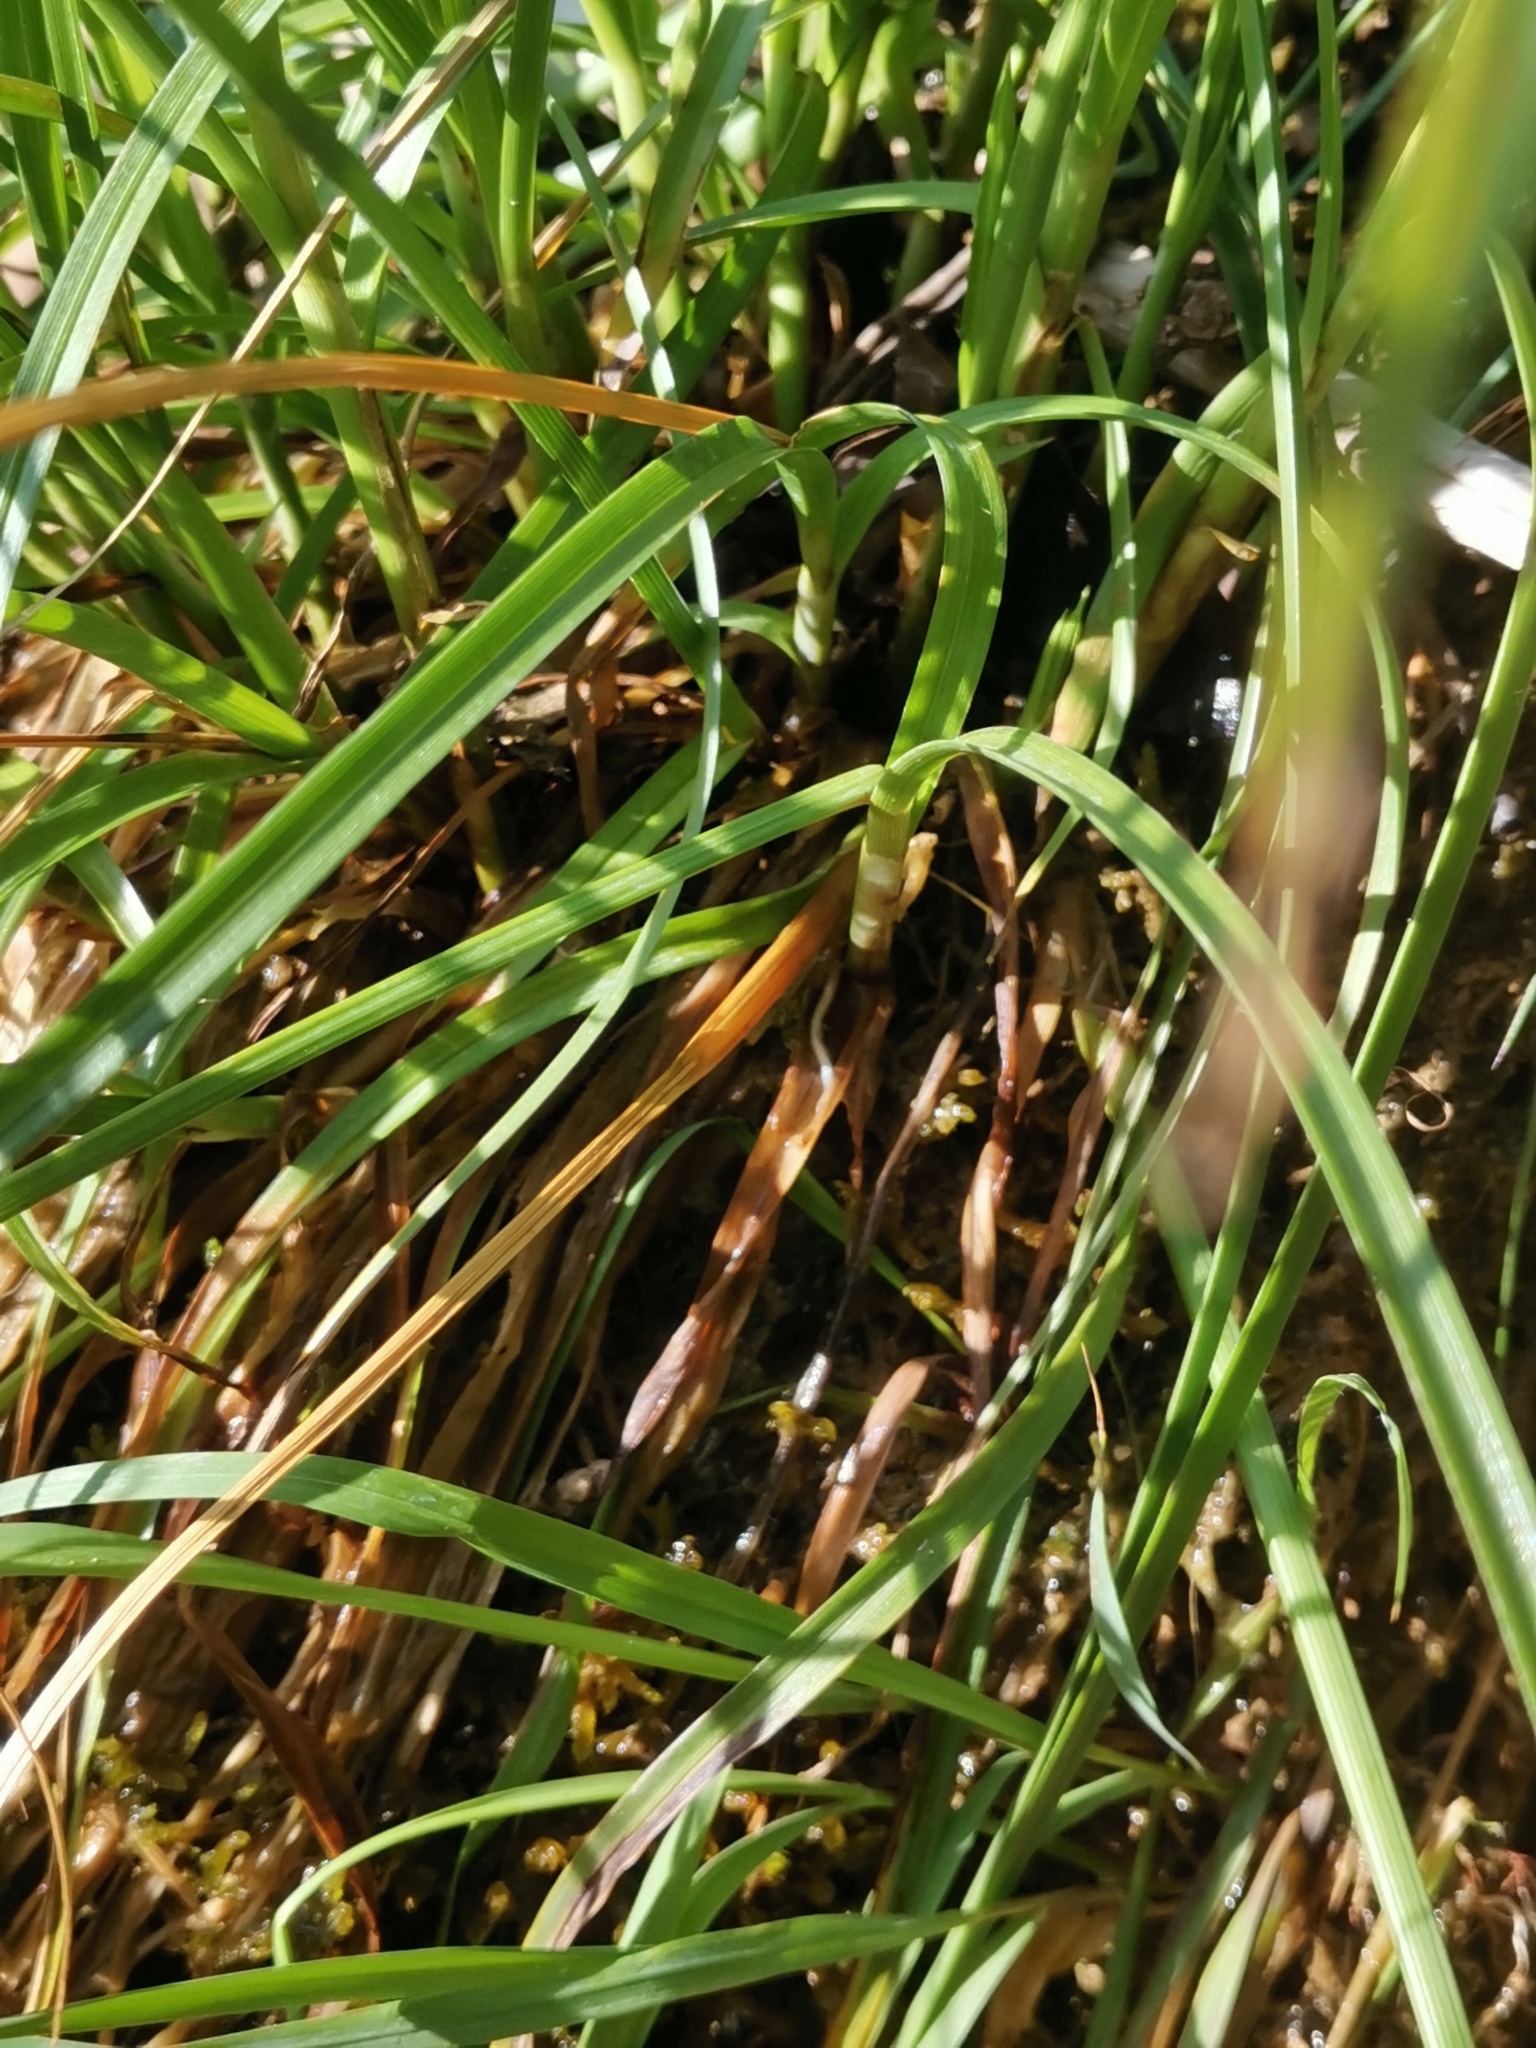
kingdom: Plantae
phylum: Tracheophyta
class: Liliopsida
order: Poales
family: Cyperaceae
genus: Carex
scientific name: Carex paniculata
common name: Greater tussock-sedge
